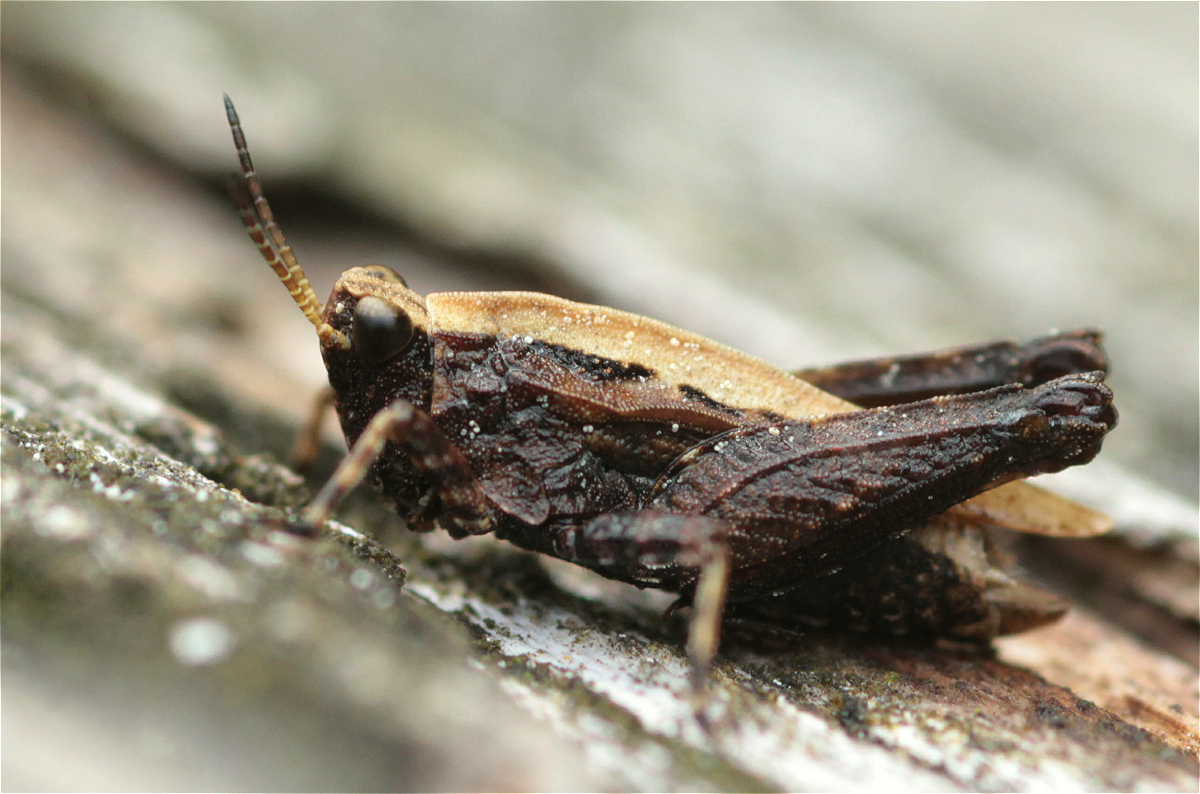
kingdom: Animalia
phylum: Arthropoda
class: Insecta
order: Orthoptera
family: Tetrigidae
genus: Tetrix
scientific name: Tetrix undulata
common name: Common groundhopper
